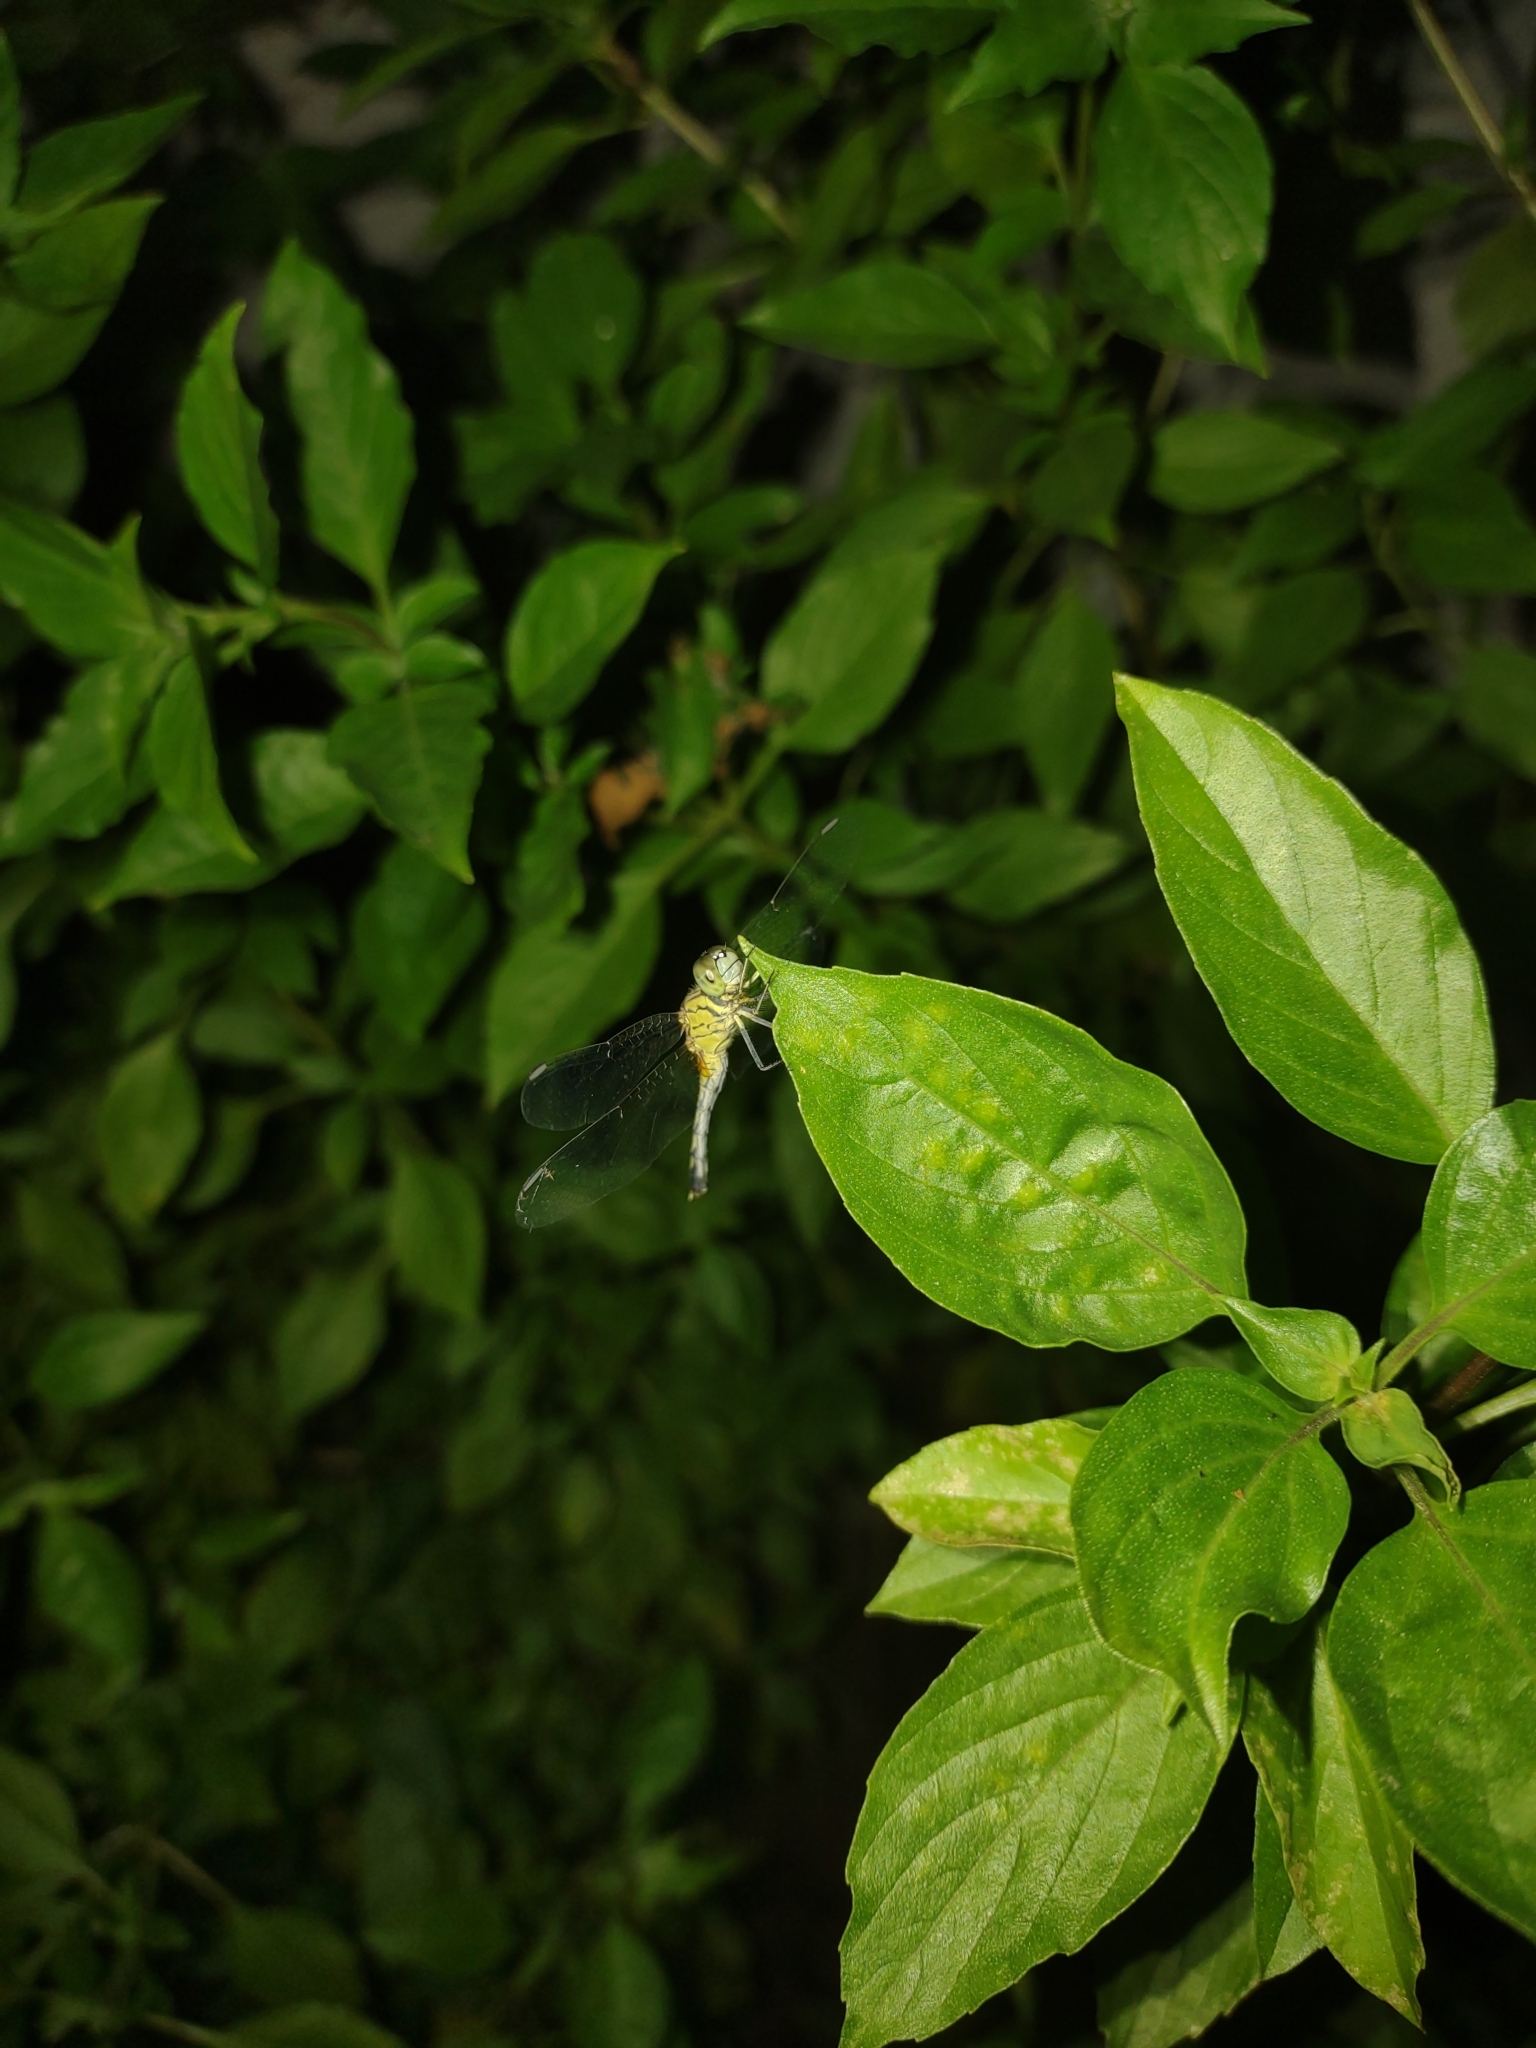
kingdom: Animalia
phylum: Arthropoda
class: Insecta
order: Odonata
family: Libellulidae
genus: Diplacodes
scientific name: Diplacodes trivialis
